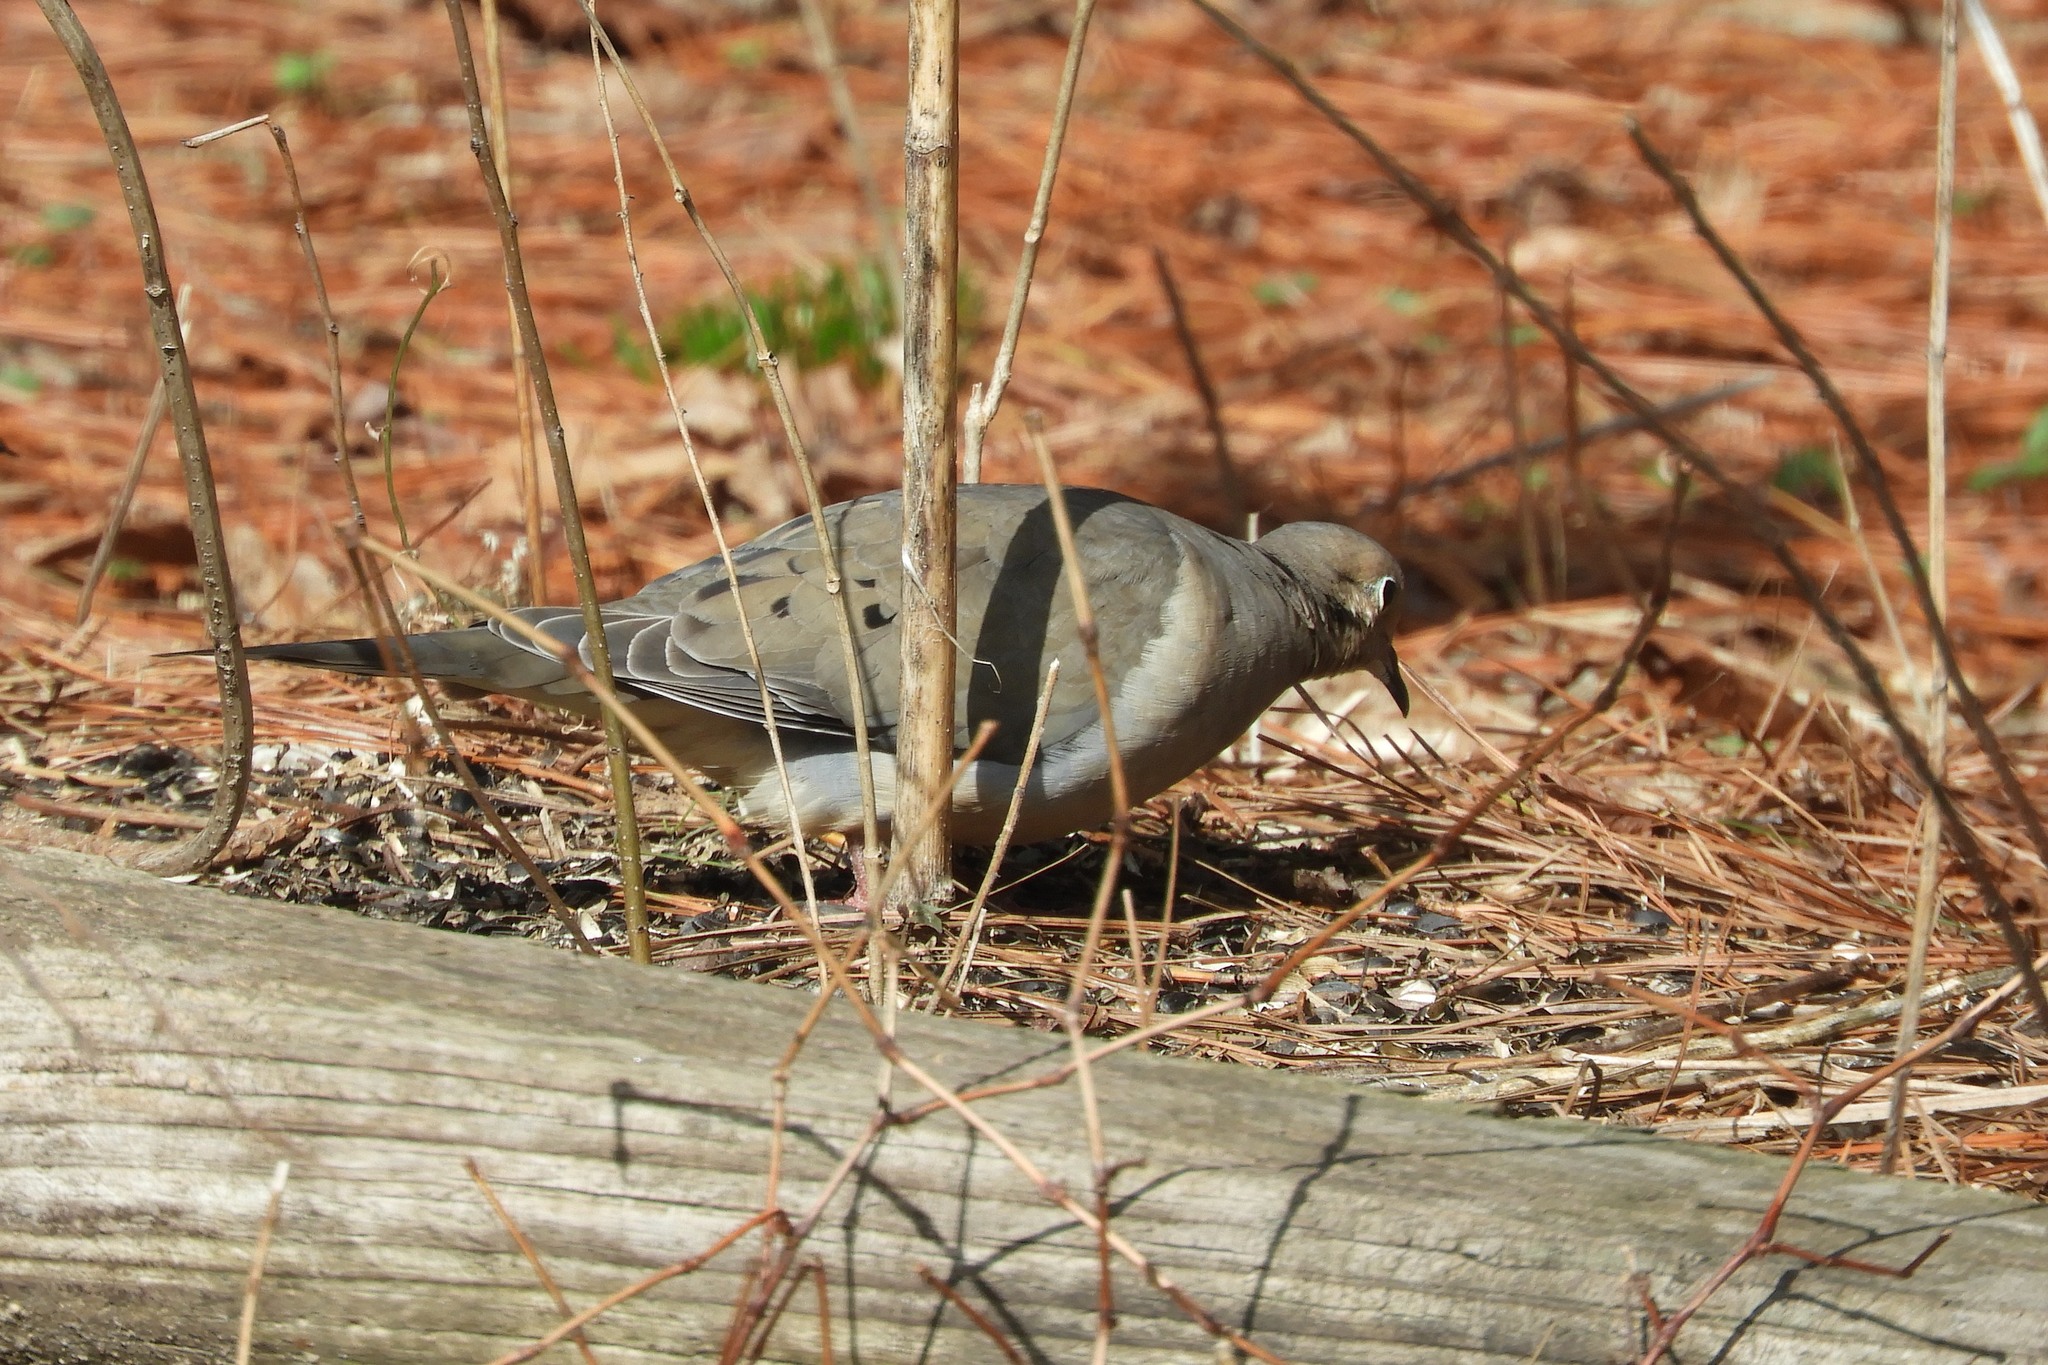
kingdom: Animalia
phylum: Chordata
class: Aves
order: Columbiformes
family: Columbidae
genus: Zenaida
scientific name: Zenaida macroura
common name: Mourning dove
